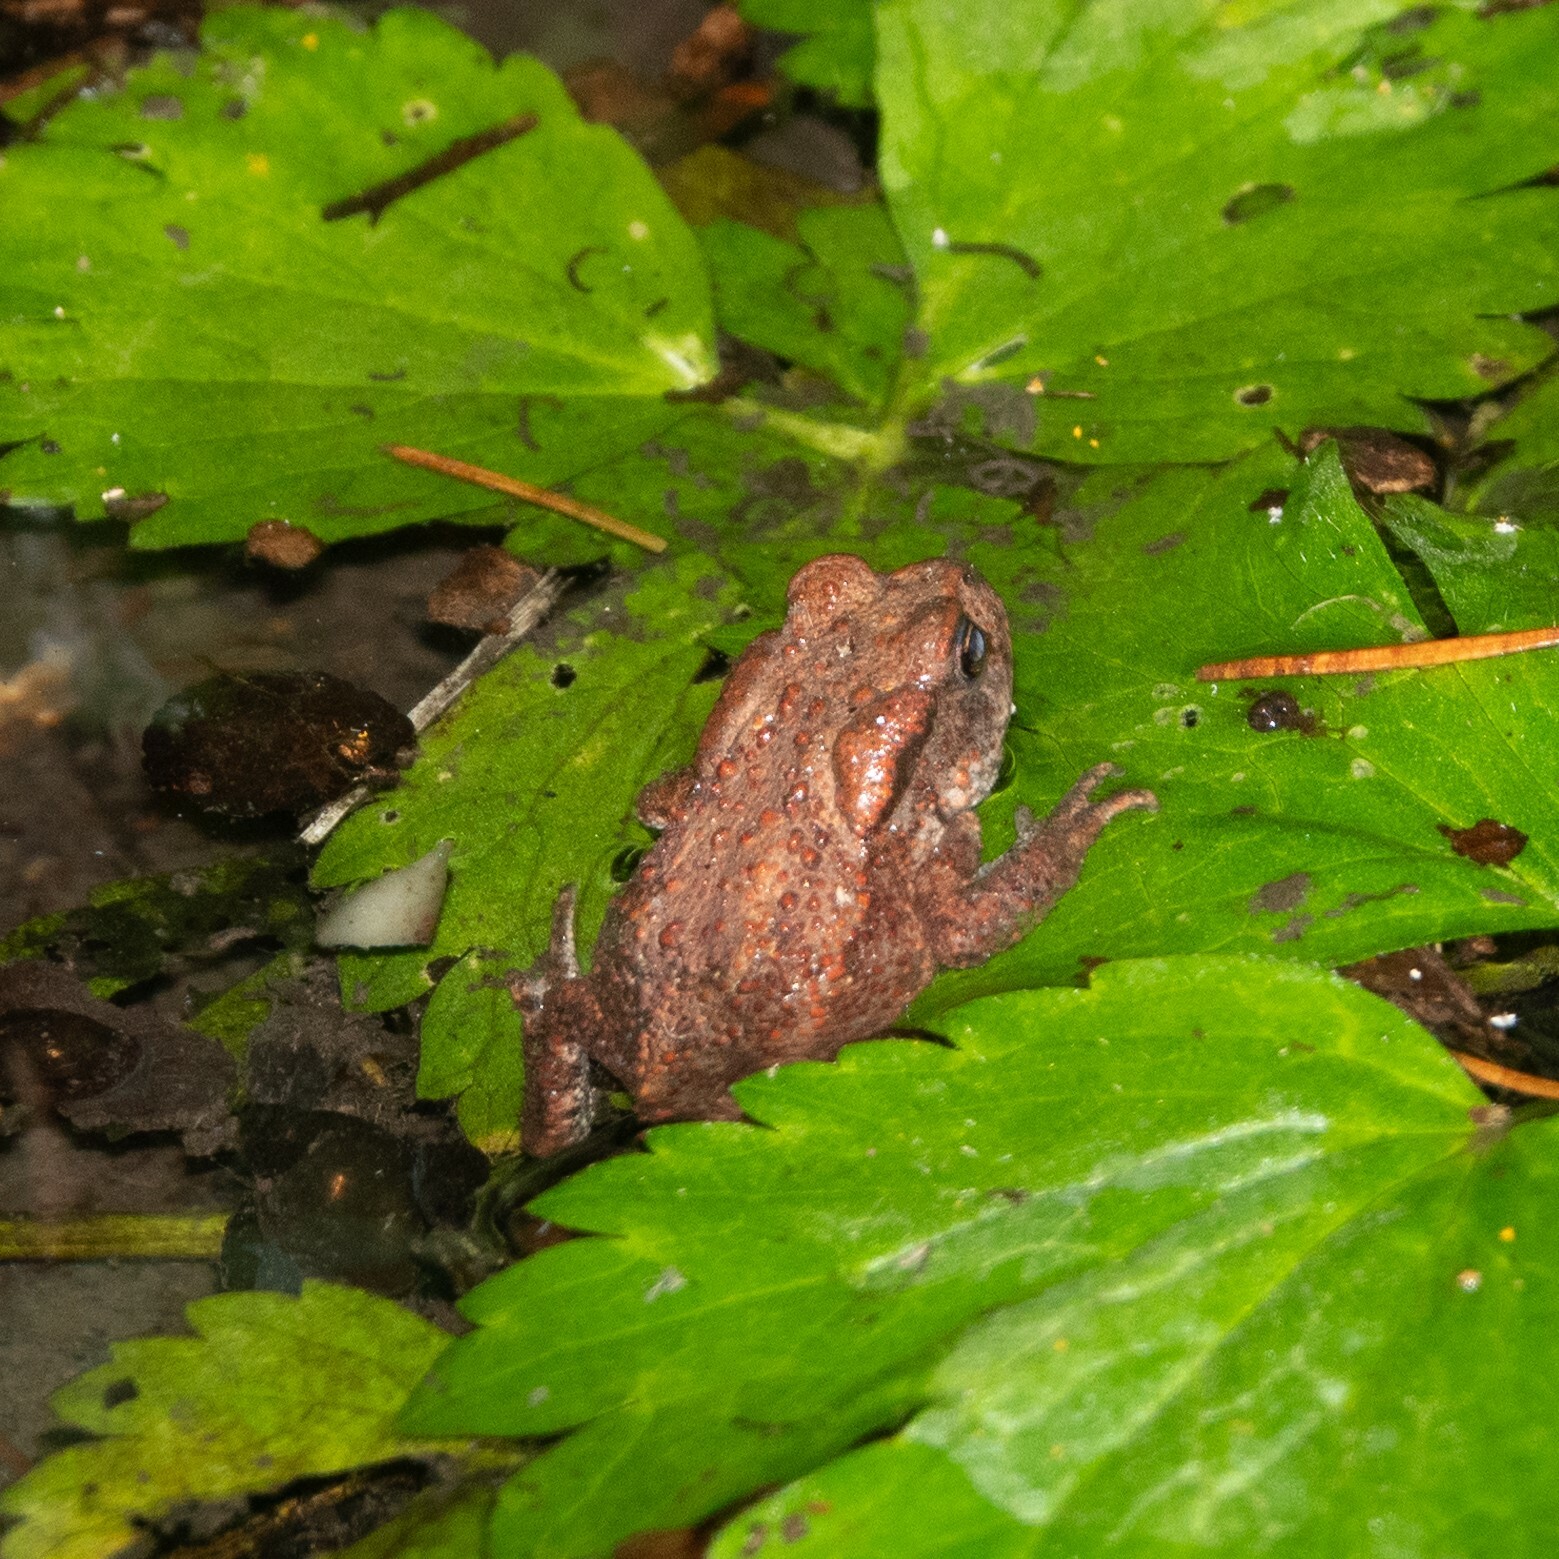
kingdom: Animalia
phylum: Chordata
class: Amphibia
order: Anura
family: Bufonidae
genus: Bufo
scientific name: Bufo bufo
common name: Common toad
